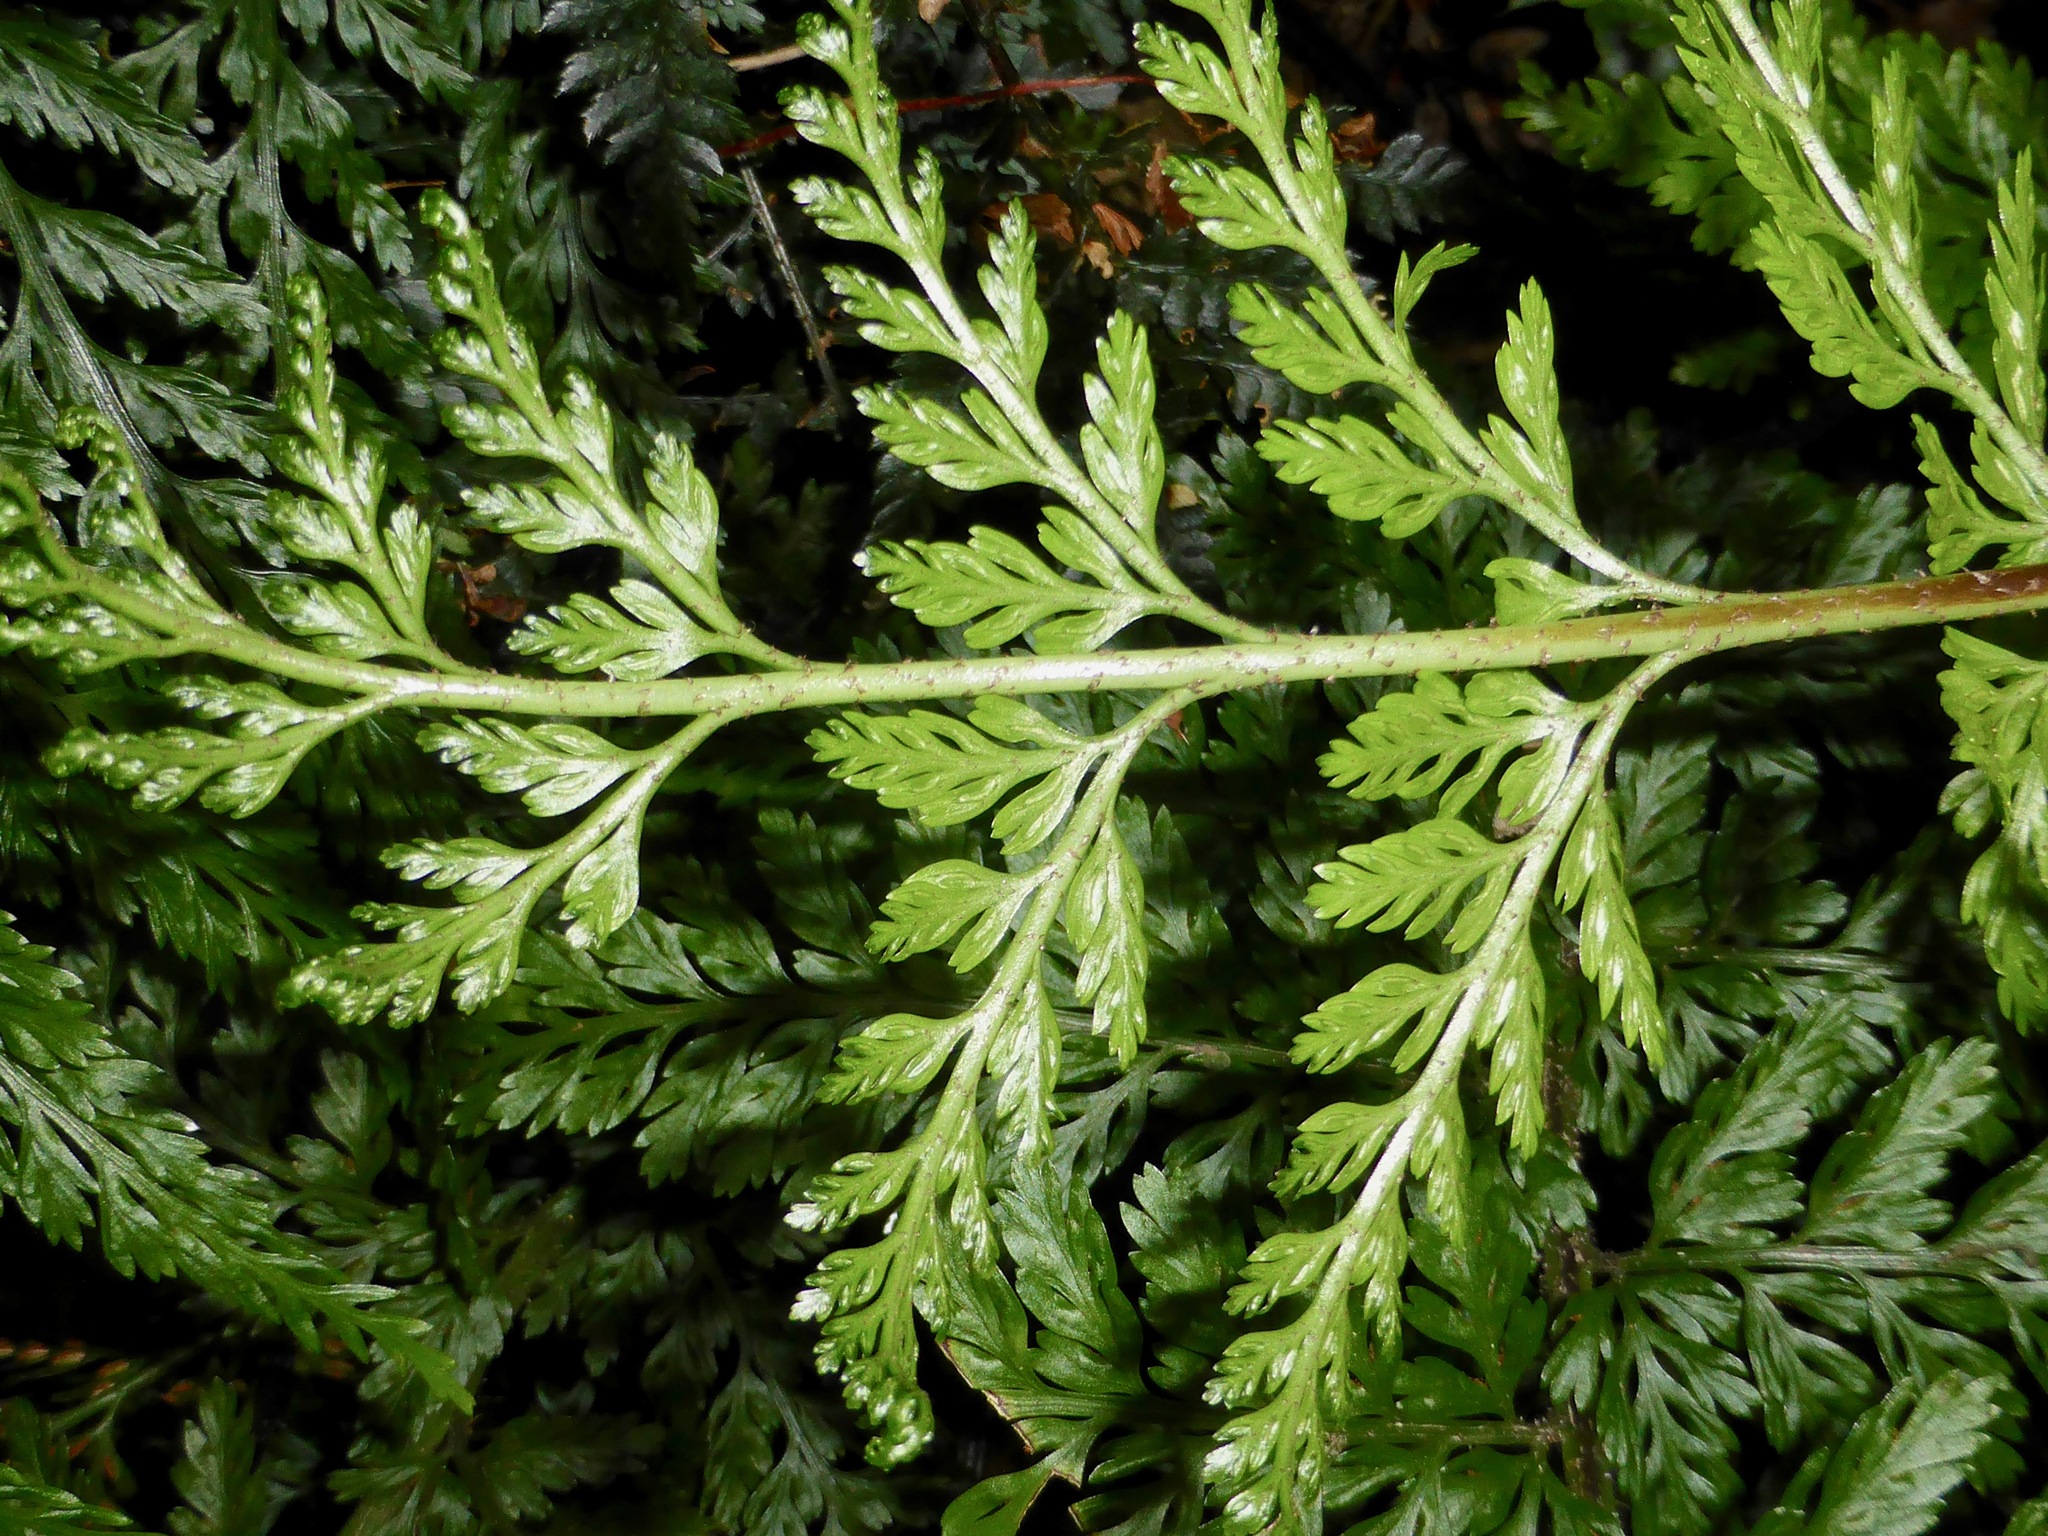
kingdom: Plantae
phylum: Tracheophyta
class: Polypodiopsida
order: Polypodiales
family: Aspleniaceae
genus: Asplenium
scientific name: Asplenium
